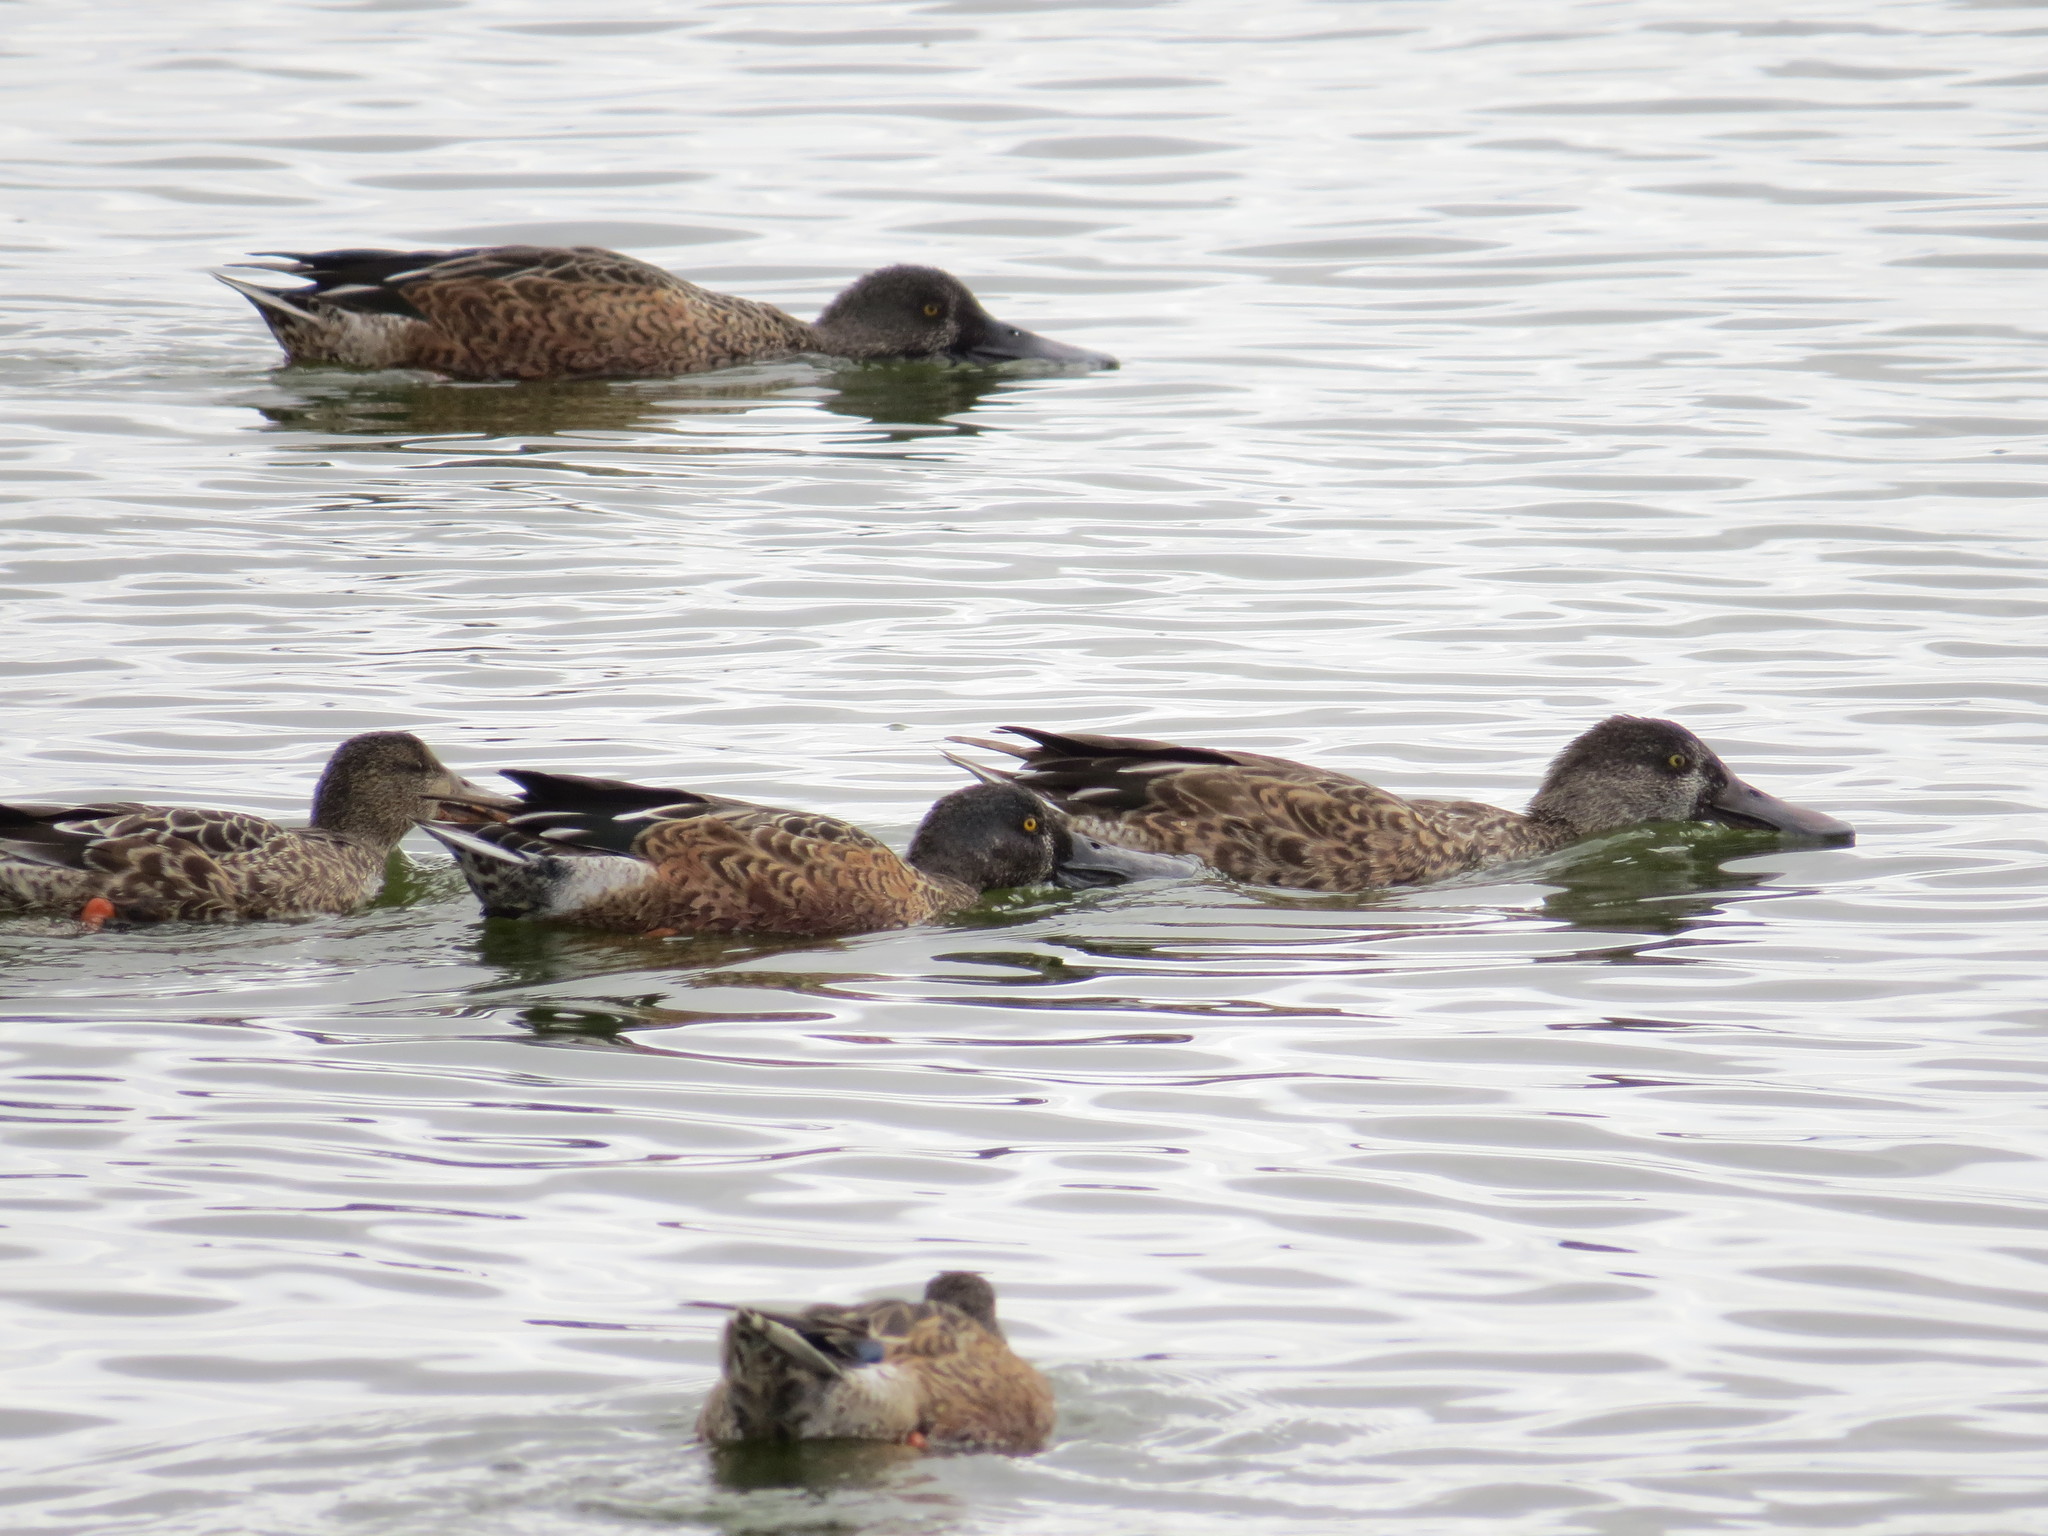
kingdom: Animalia
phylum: Chordata
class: Aves
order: Anseriformes
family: Anatidae
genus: Spatula
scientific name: Spatula clypeata
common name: Northern shoveler
